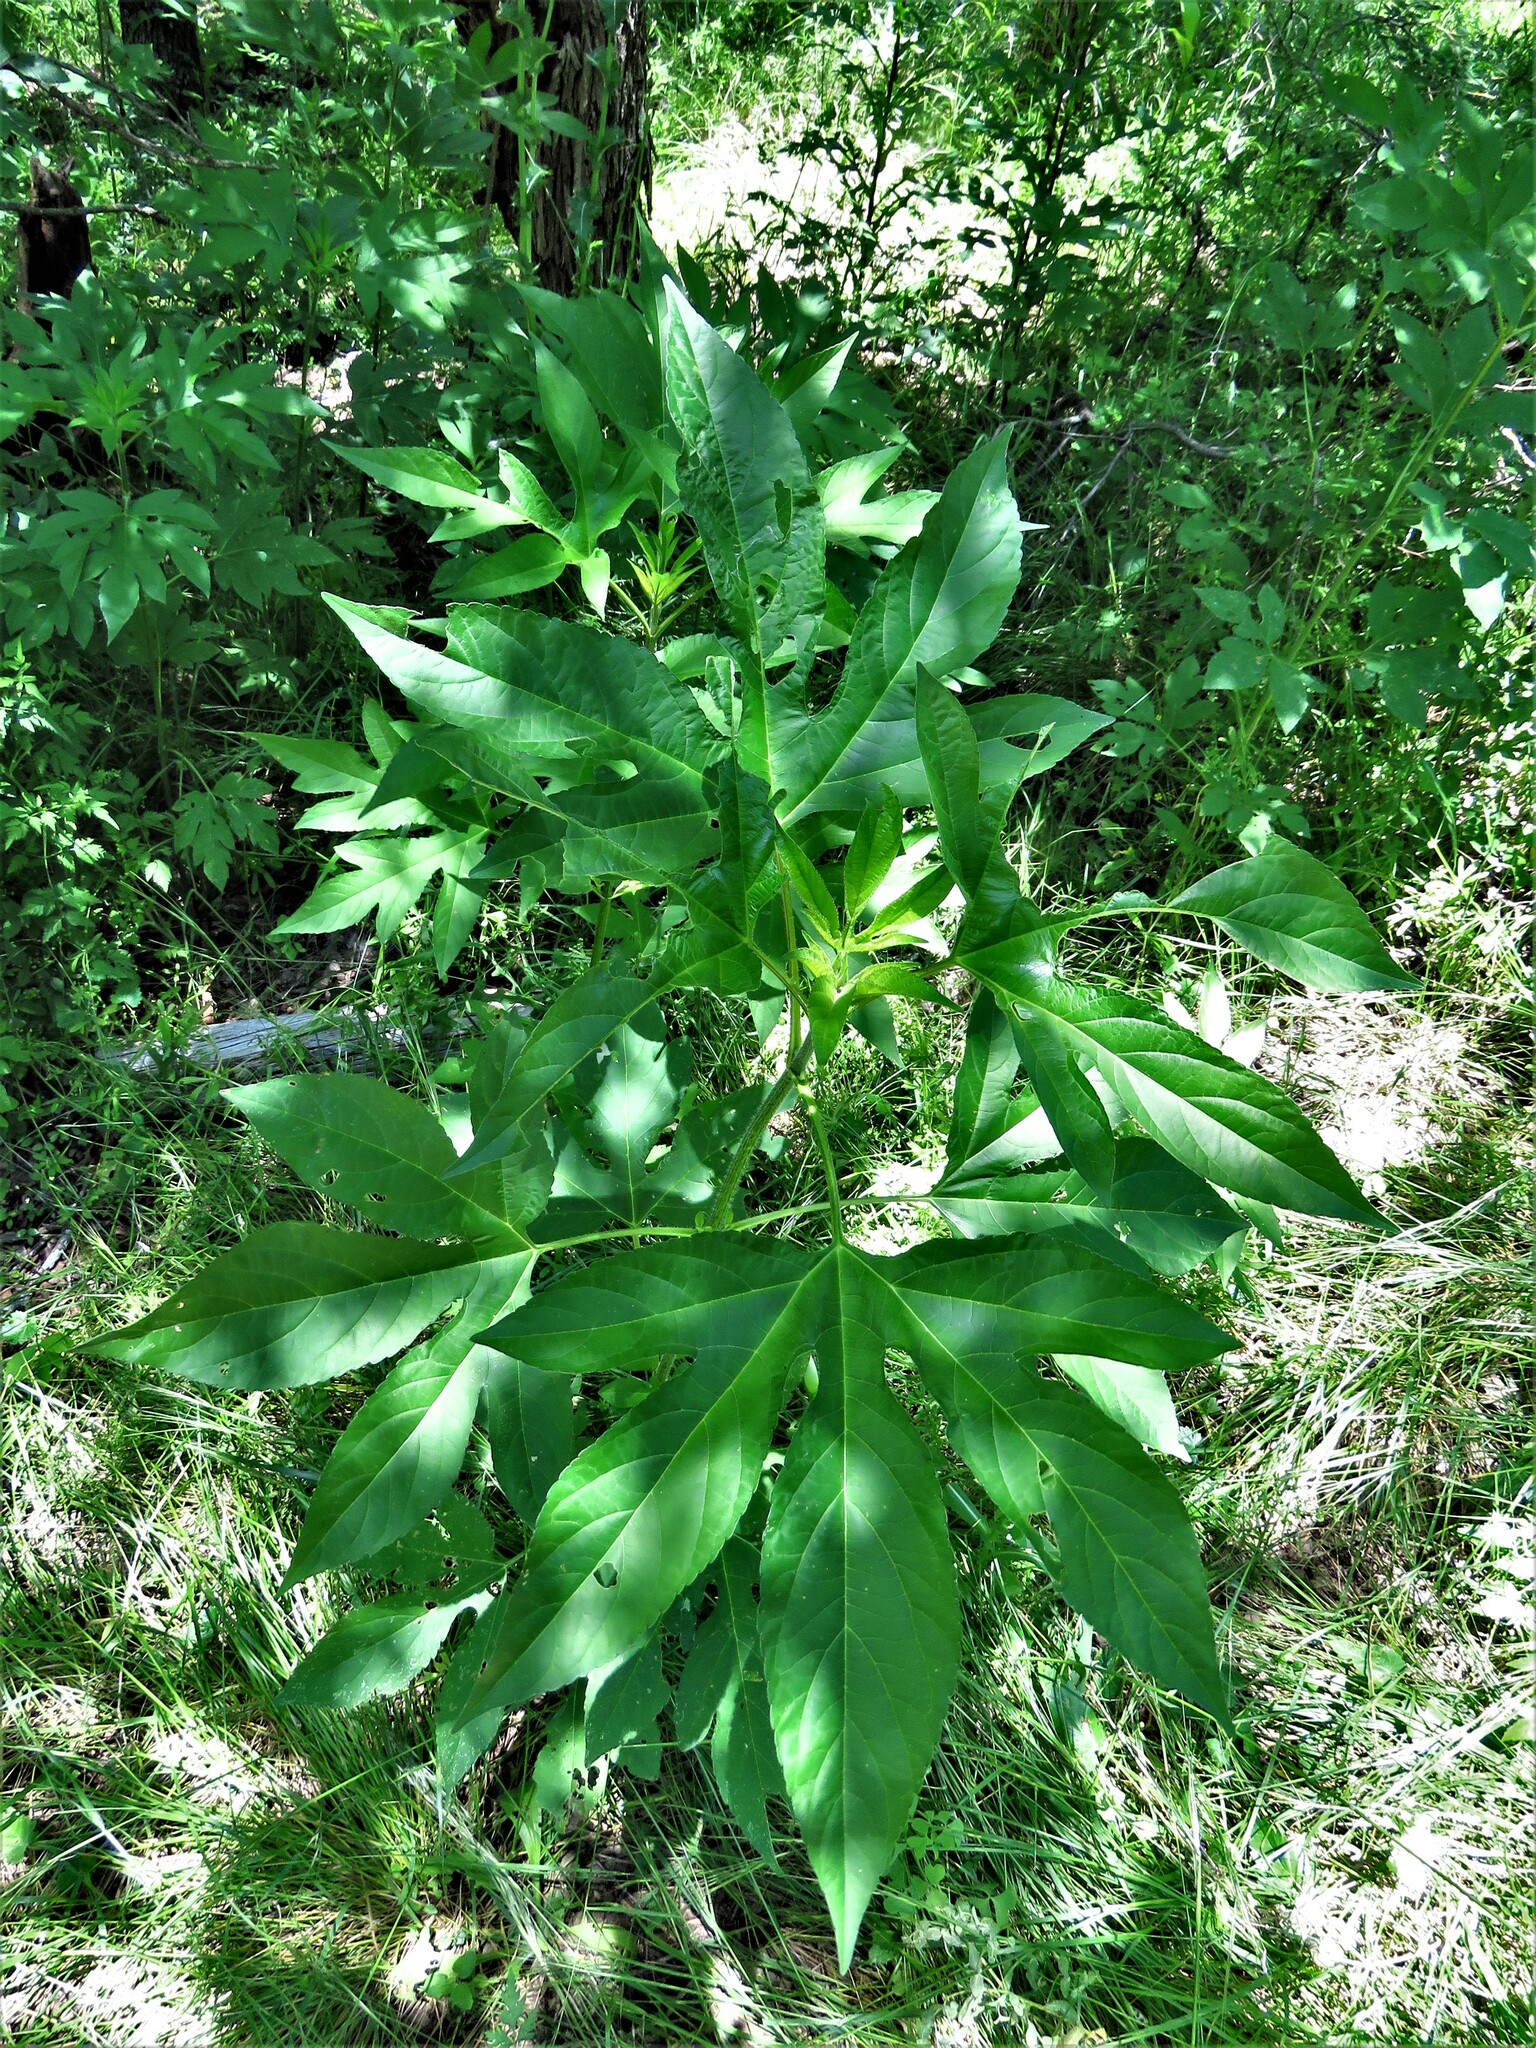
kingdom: Plantae
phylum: Tracheophyta
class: Magnoliopsida
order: Asterales
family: Asteraceae
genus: Ambrosia
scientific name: Ambrosia trifida
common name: Giant ragweed
